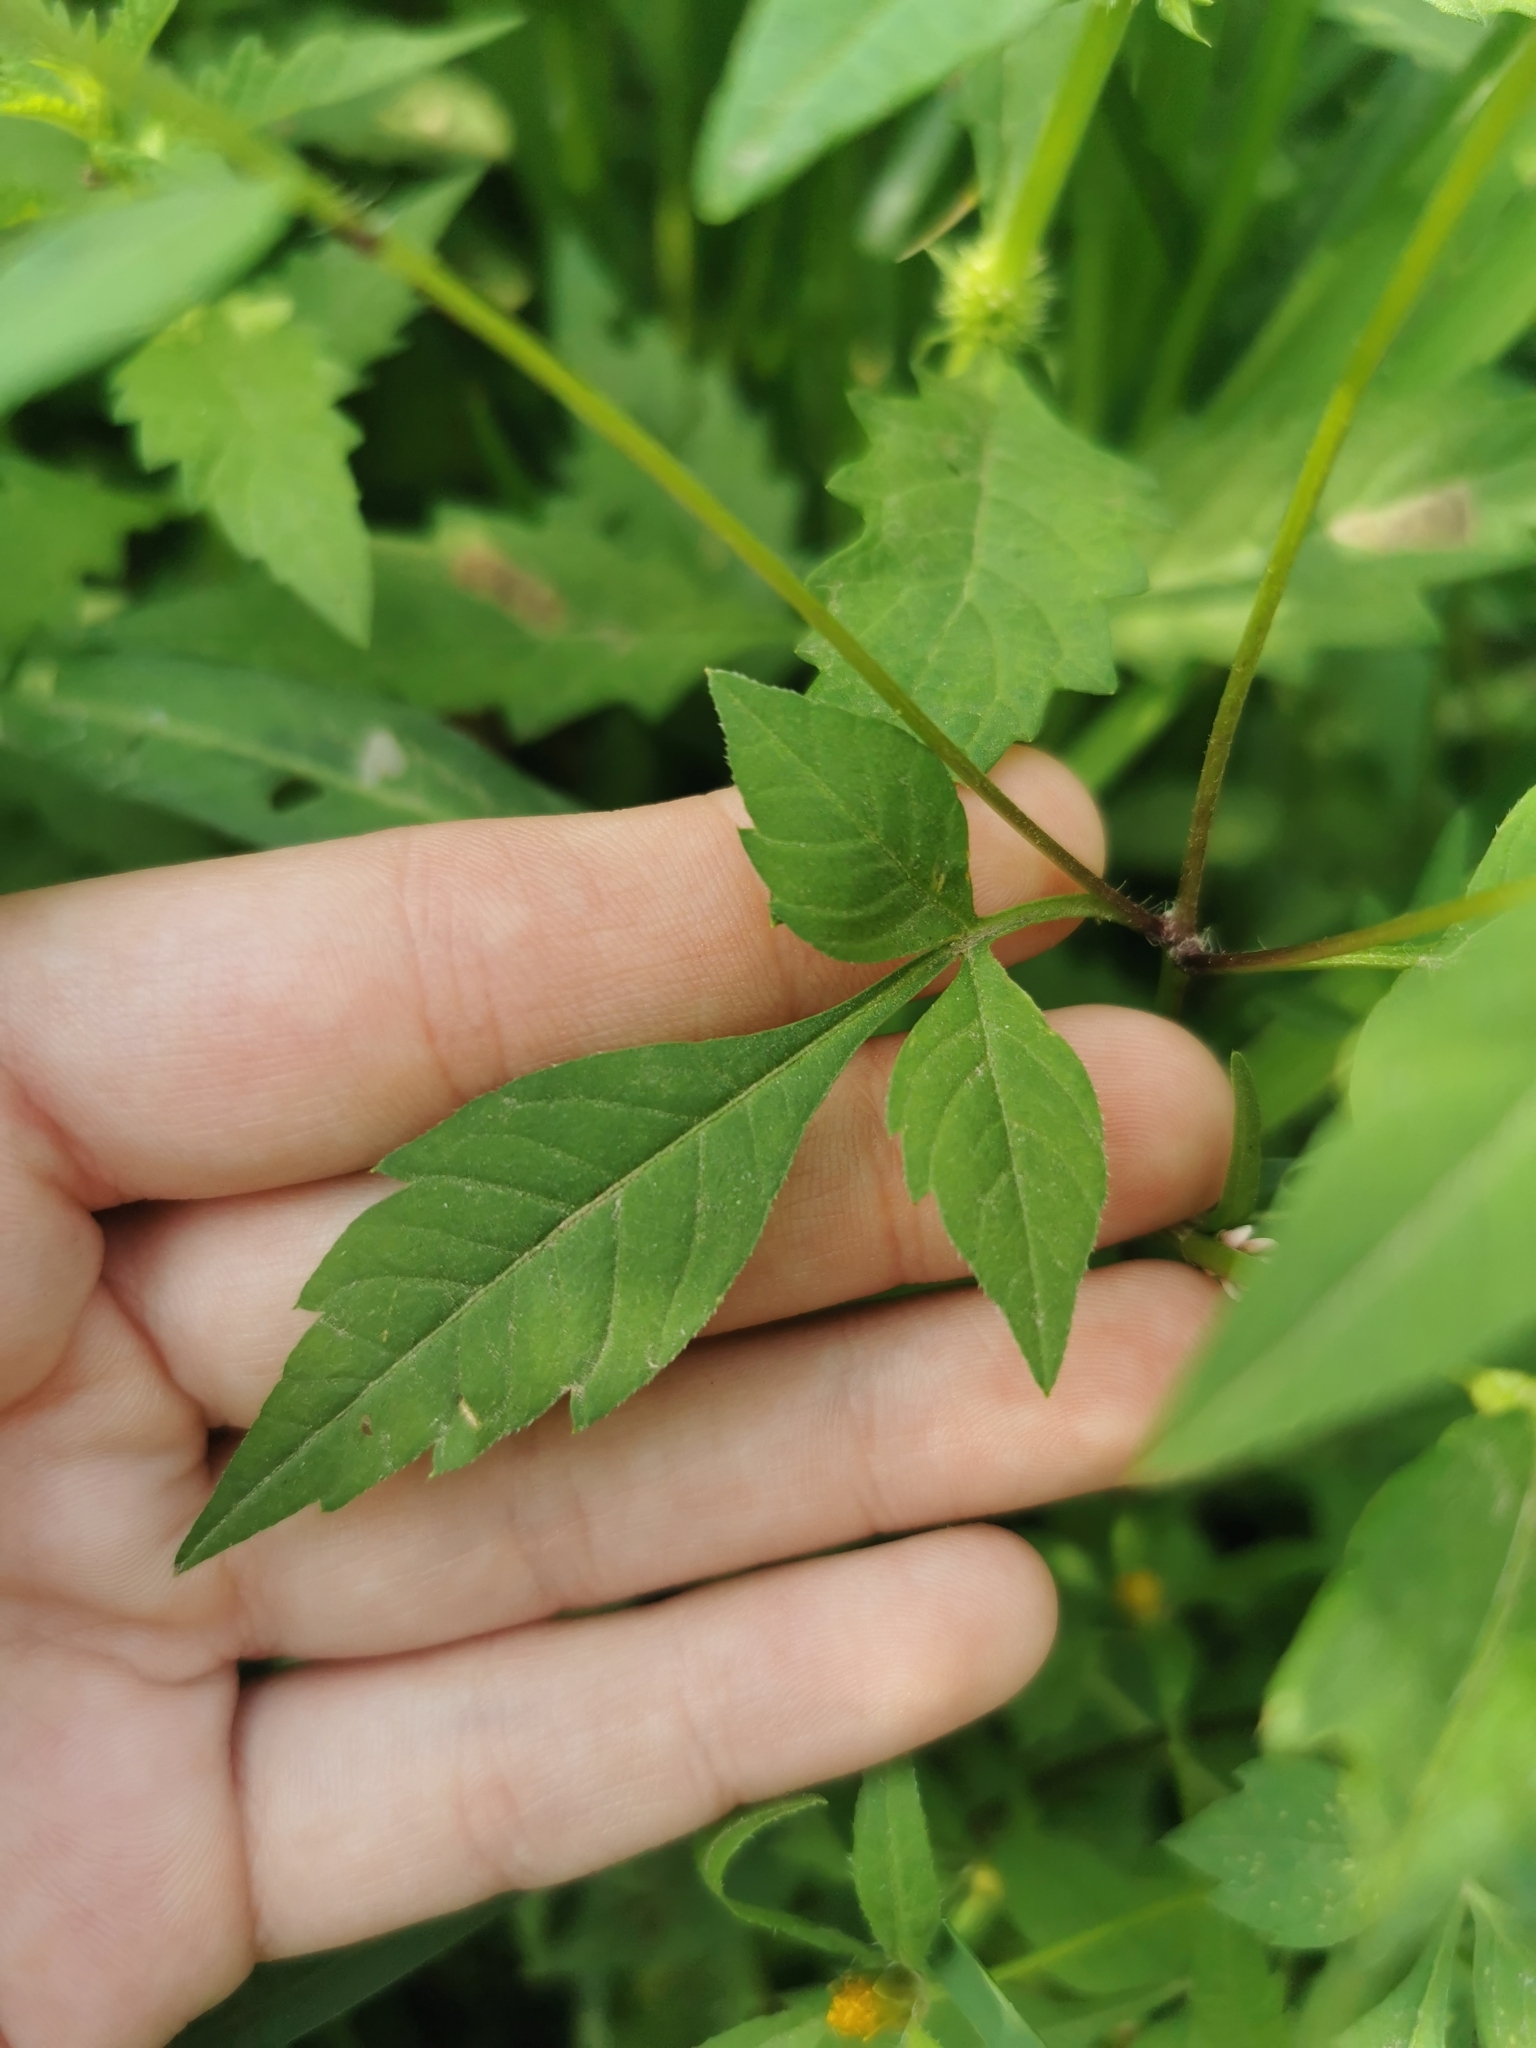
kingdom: Plantae
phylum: Tracheophyta
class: Magnoliopsida
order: Asterales
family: Asteraceae
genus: Bidens
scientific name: Bidens frondosa
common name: Beggarticks
